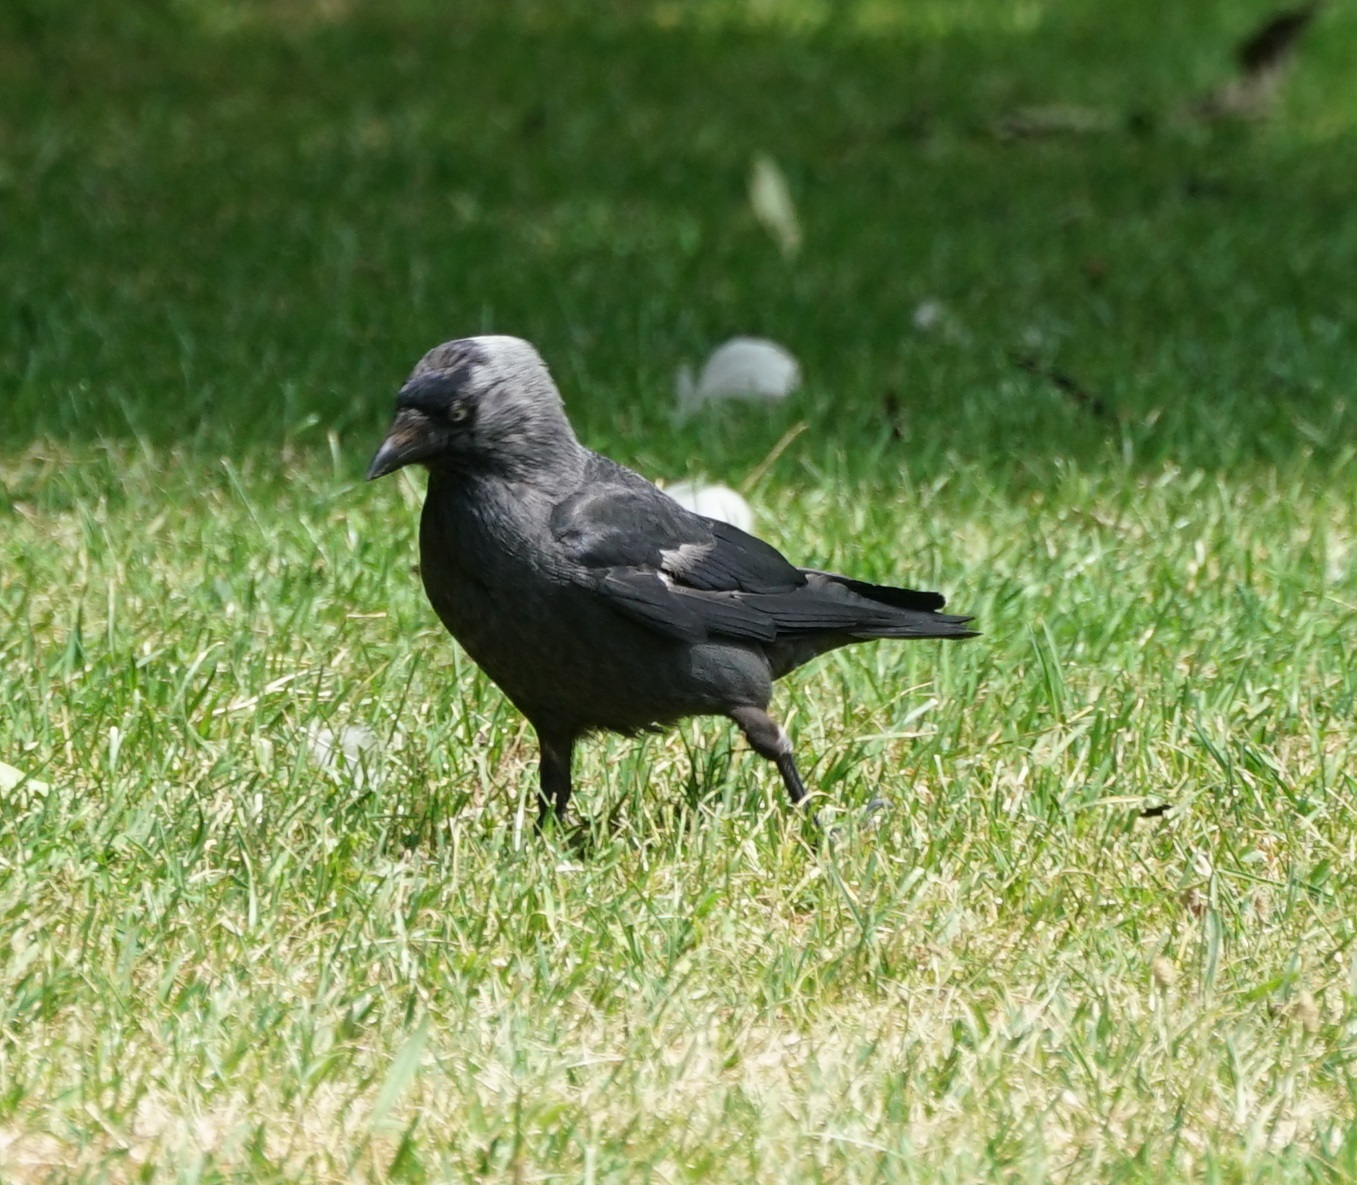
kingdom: Animalia
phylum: Chordata
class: Aves
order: Passeriformes
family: Corvidae
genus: Coloeus
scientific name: Coloeus monedula
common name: Western jackdaw
